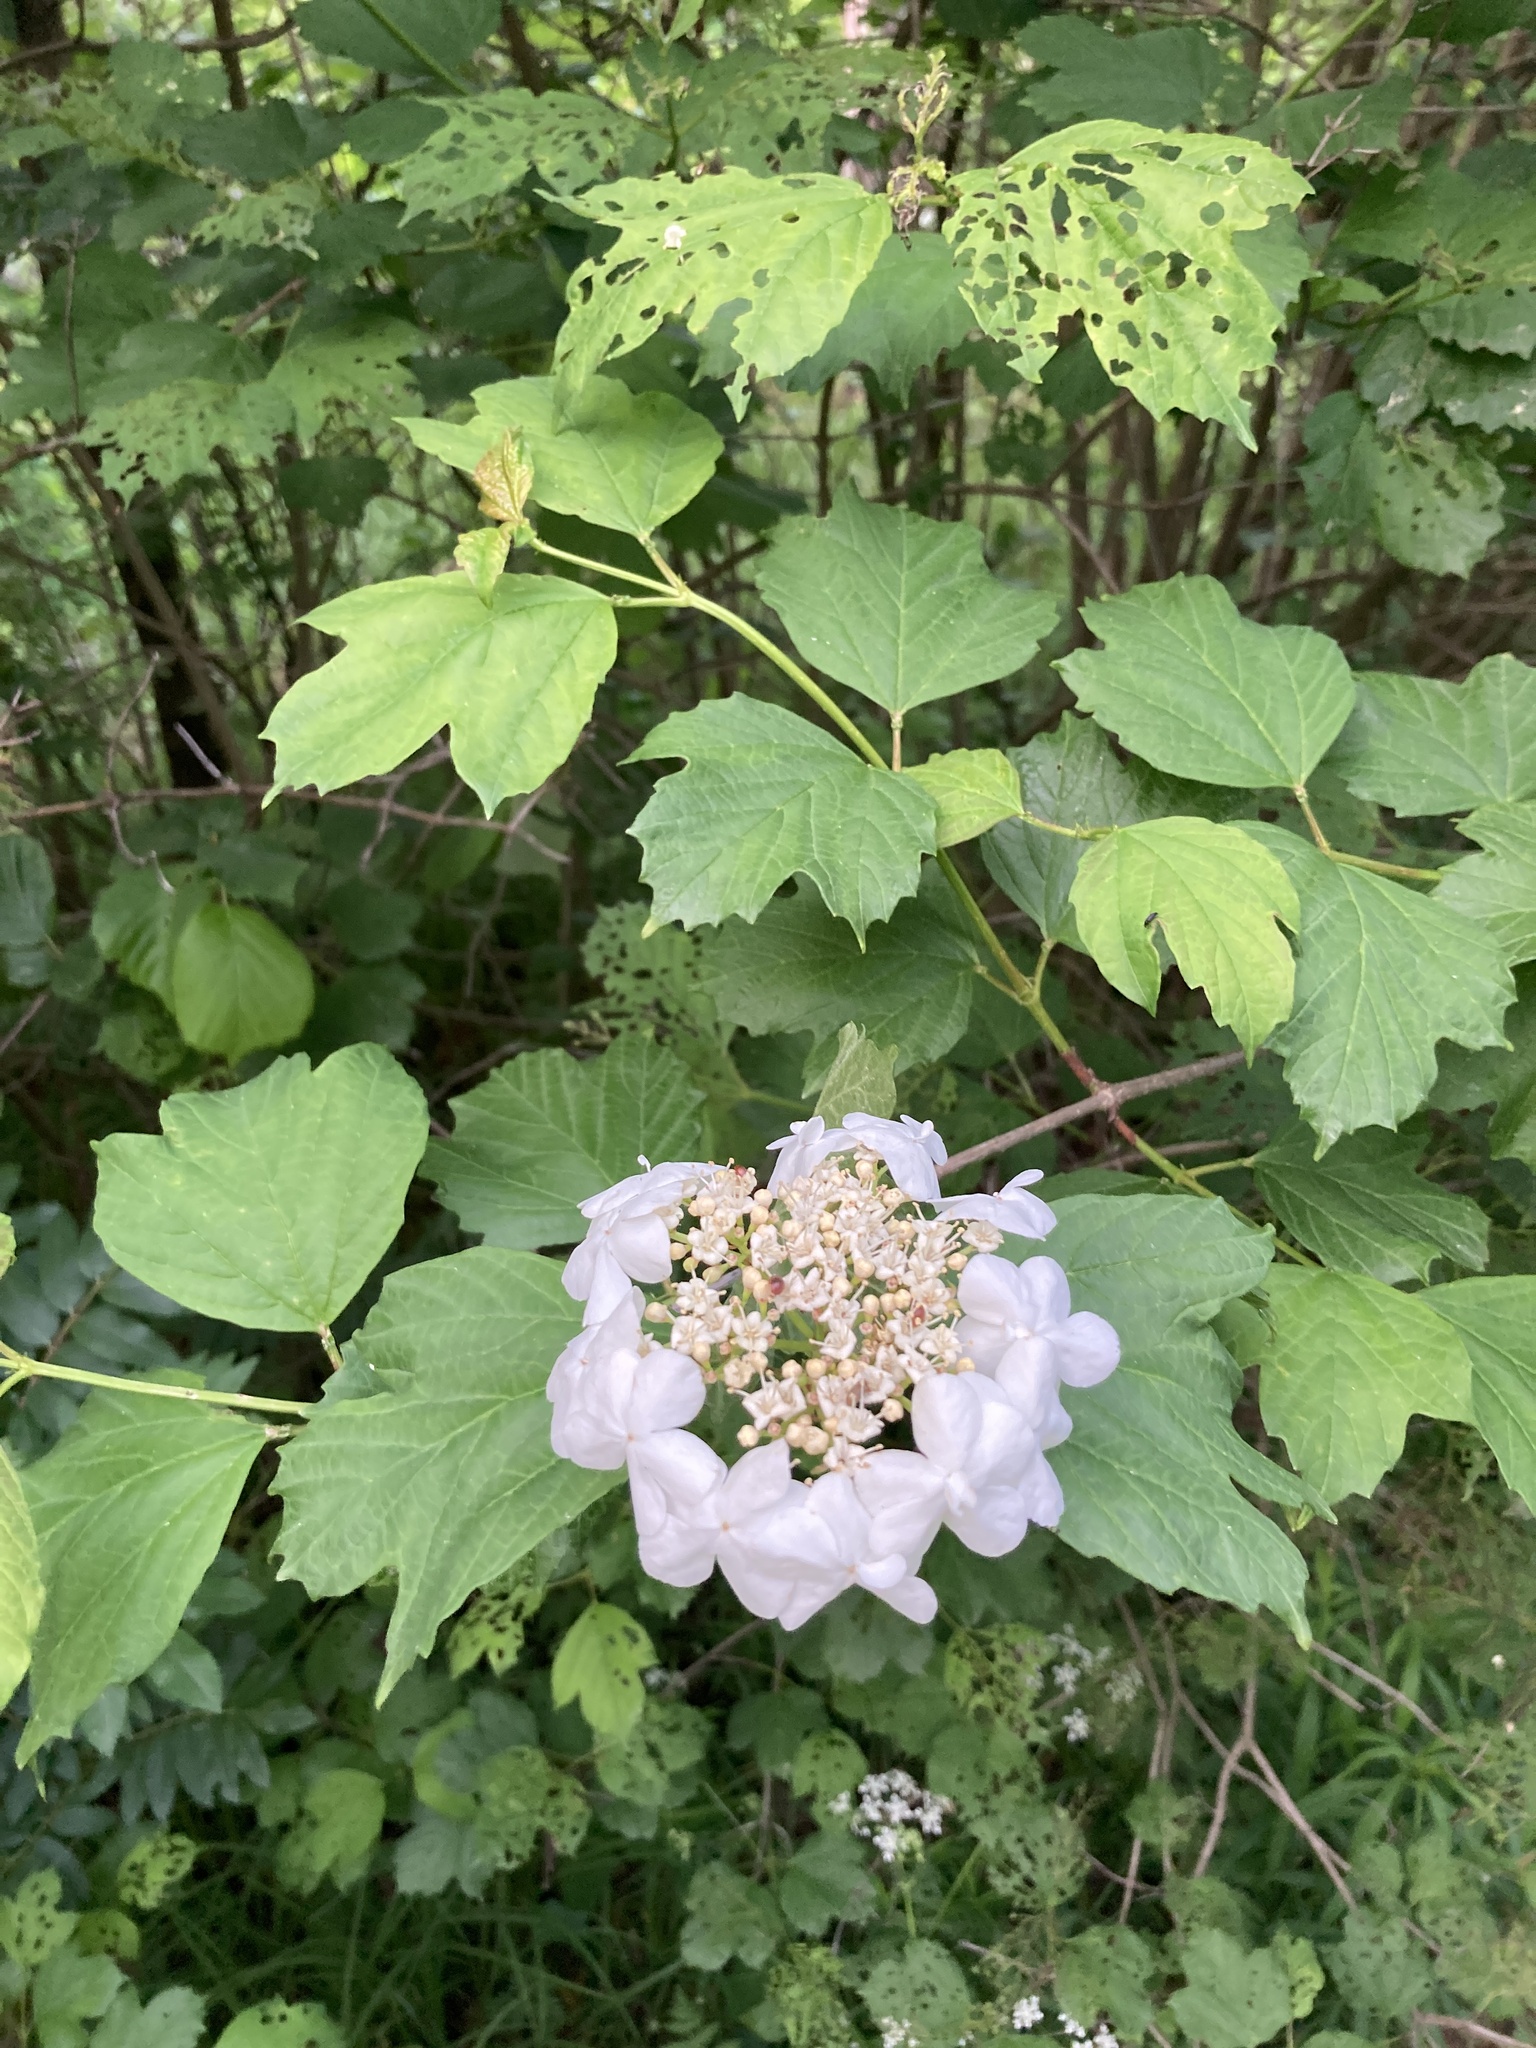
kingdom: Plantae
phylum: Tracheophyta
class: Magnoliopsida
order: Dipsacales
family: Viburnaceae
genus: Viburnum
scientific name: Viburnum opulus
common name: Guelder-rose
